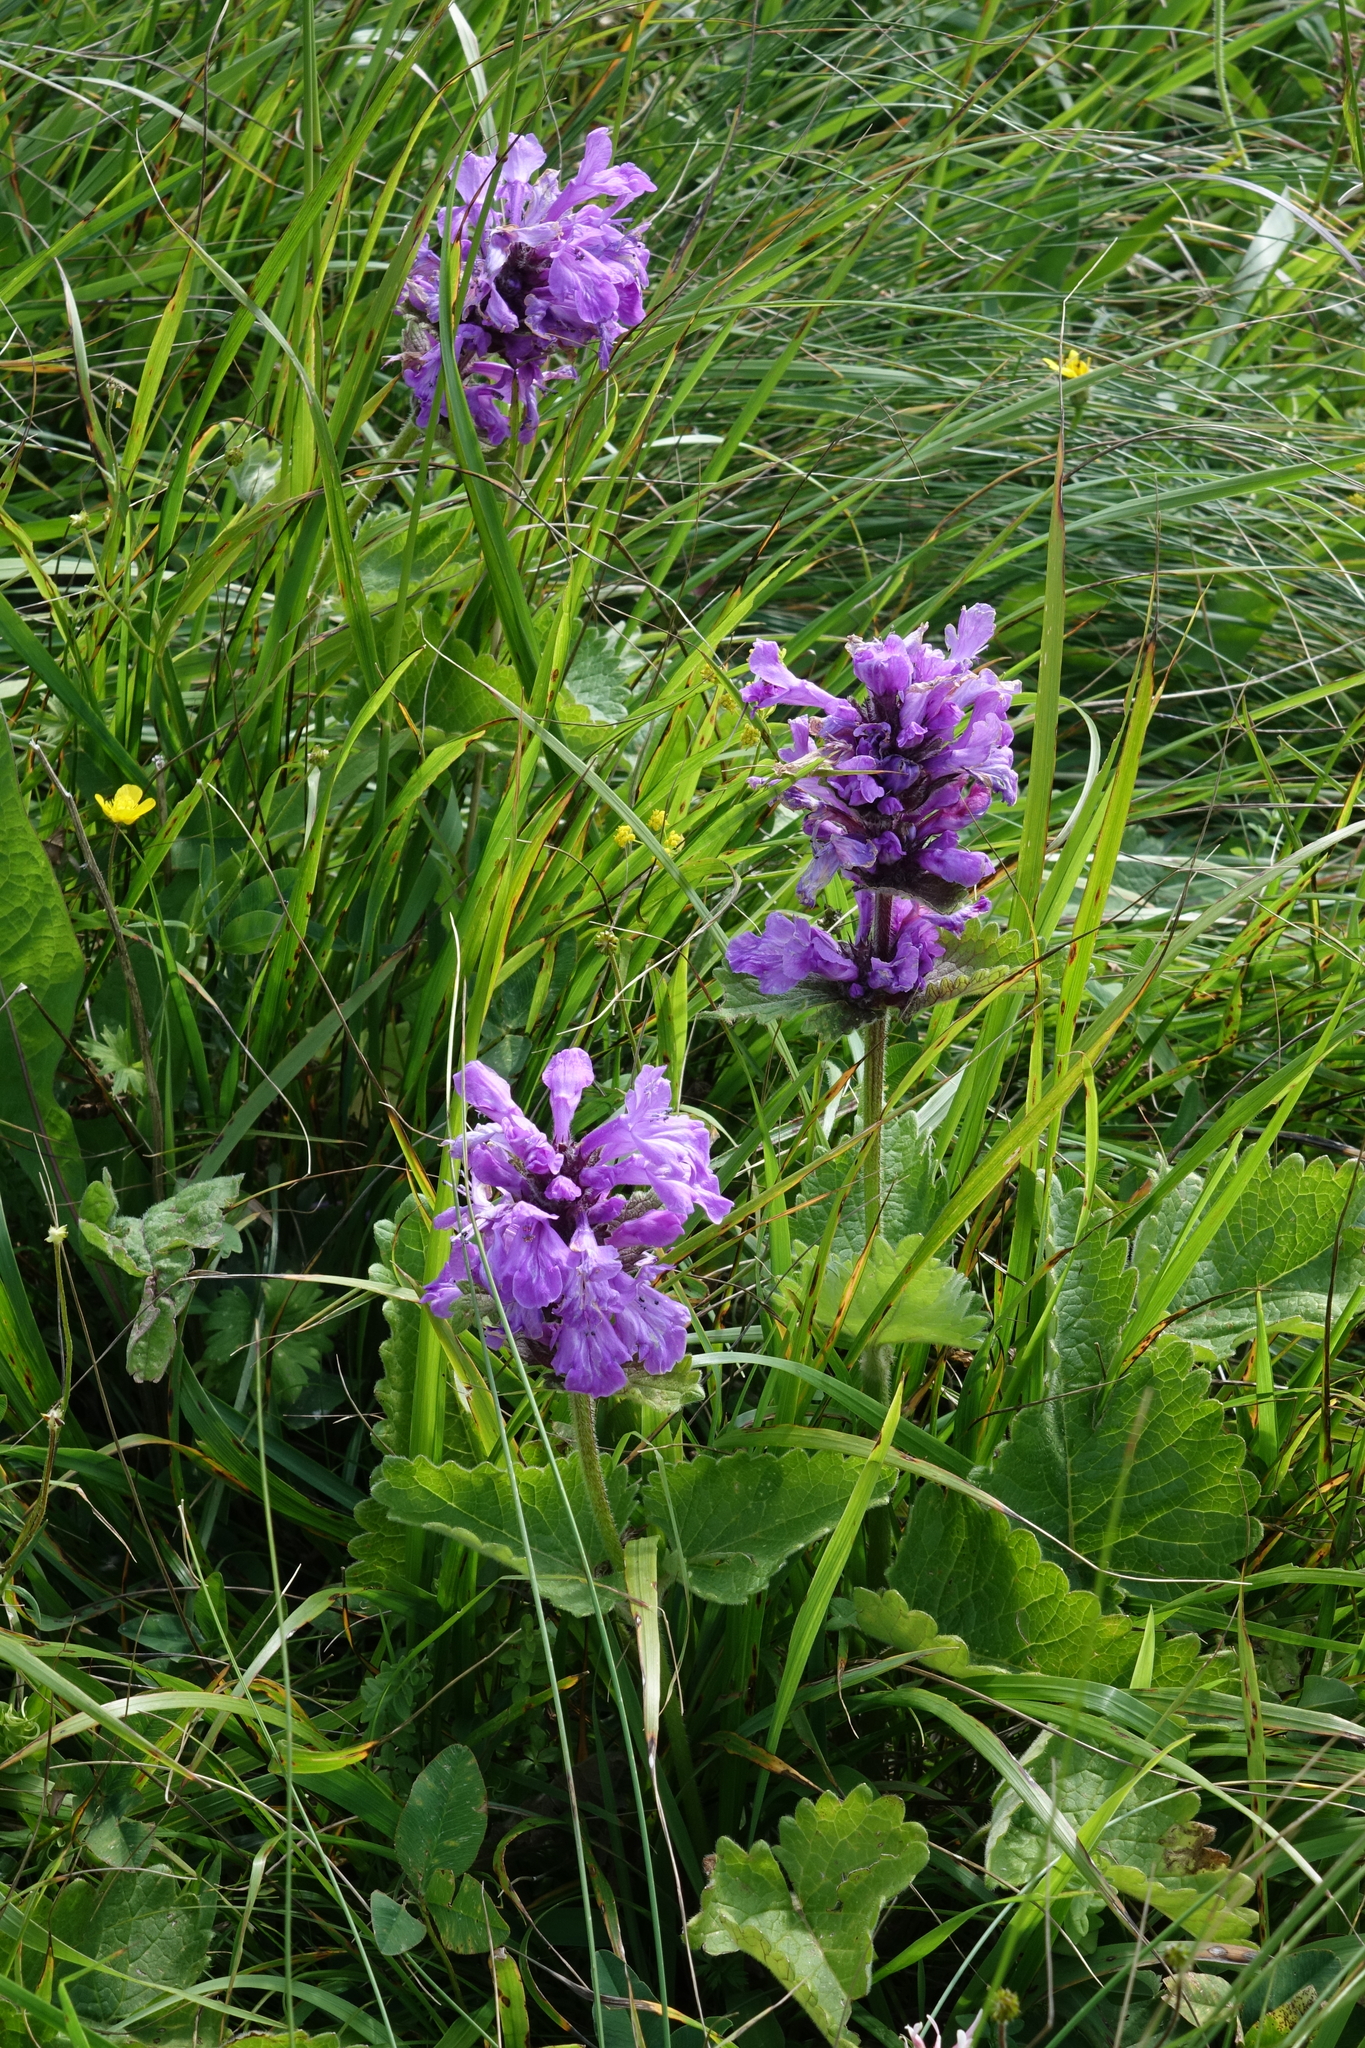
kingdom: Plantae
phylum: Tracheophyta
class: Magnoliopsida
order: Lamiales
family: Lamiaceae
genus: Betonica
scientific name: Betonica macrantha
